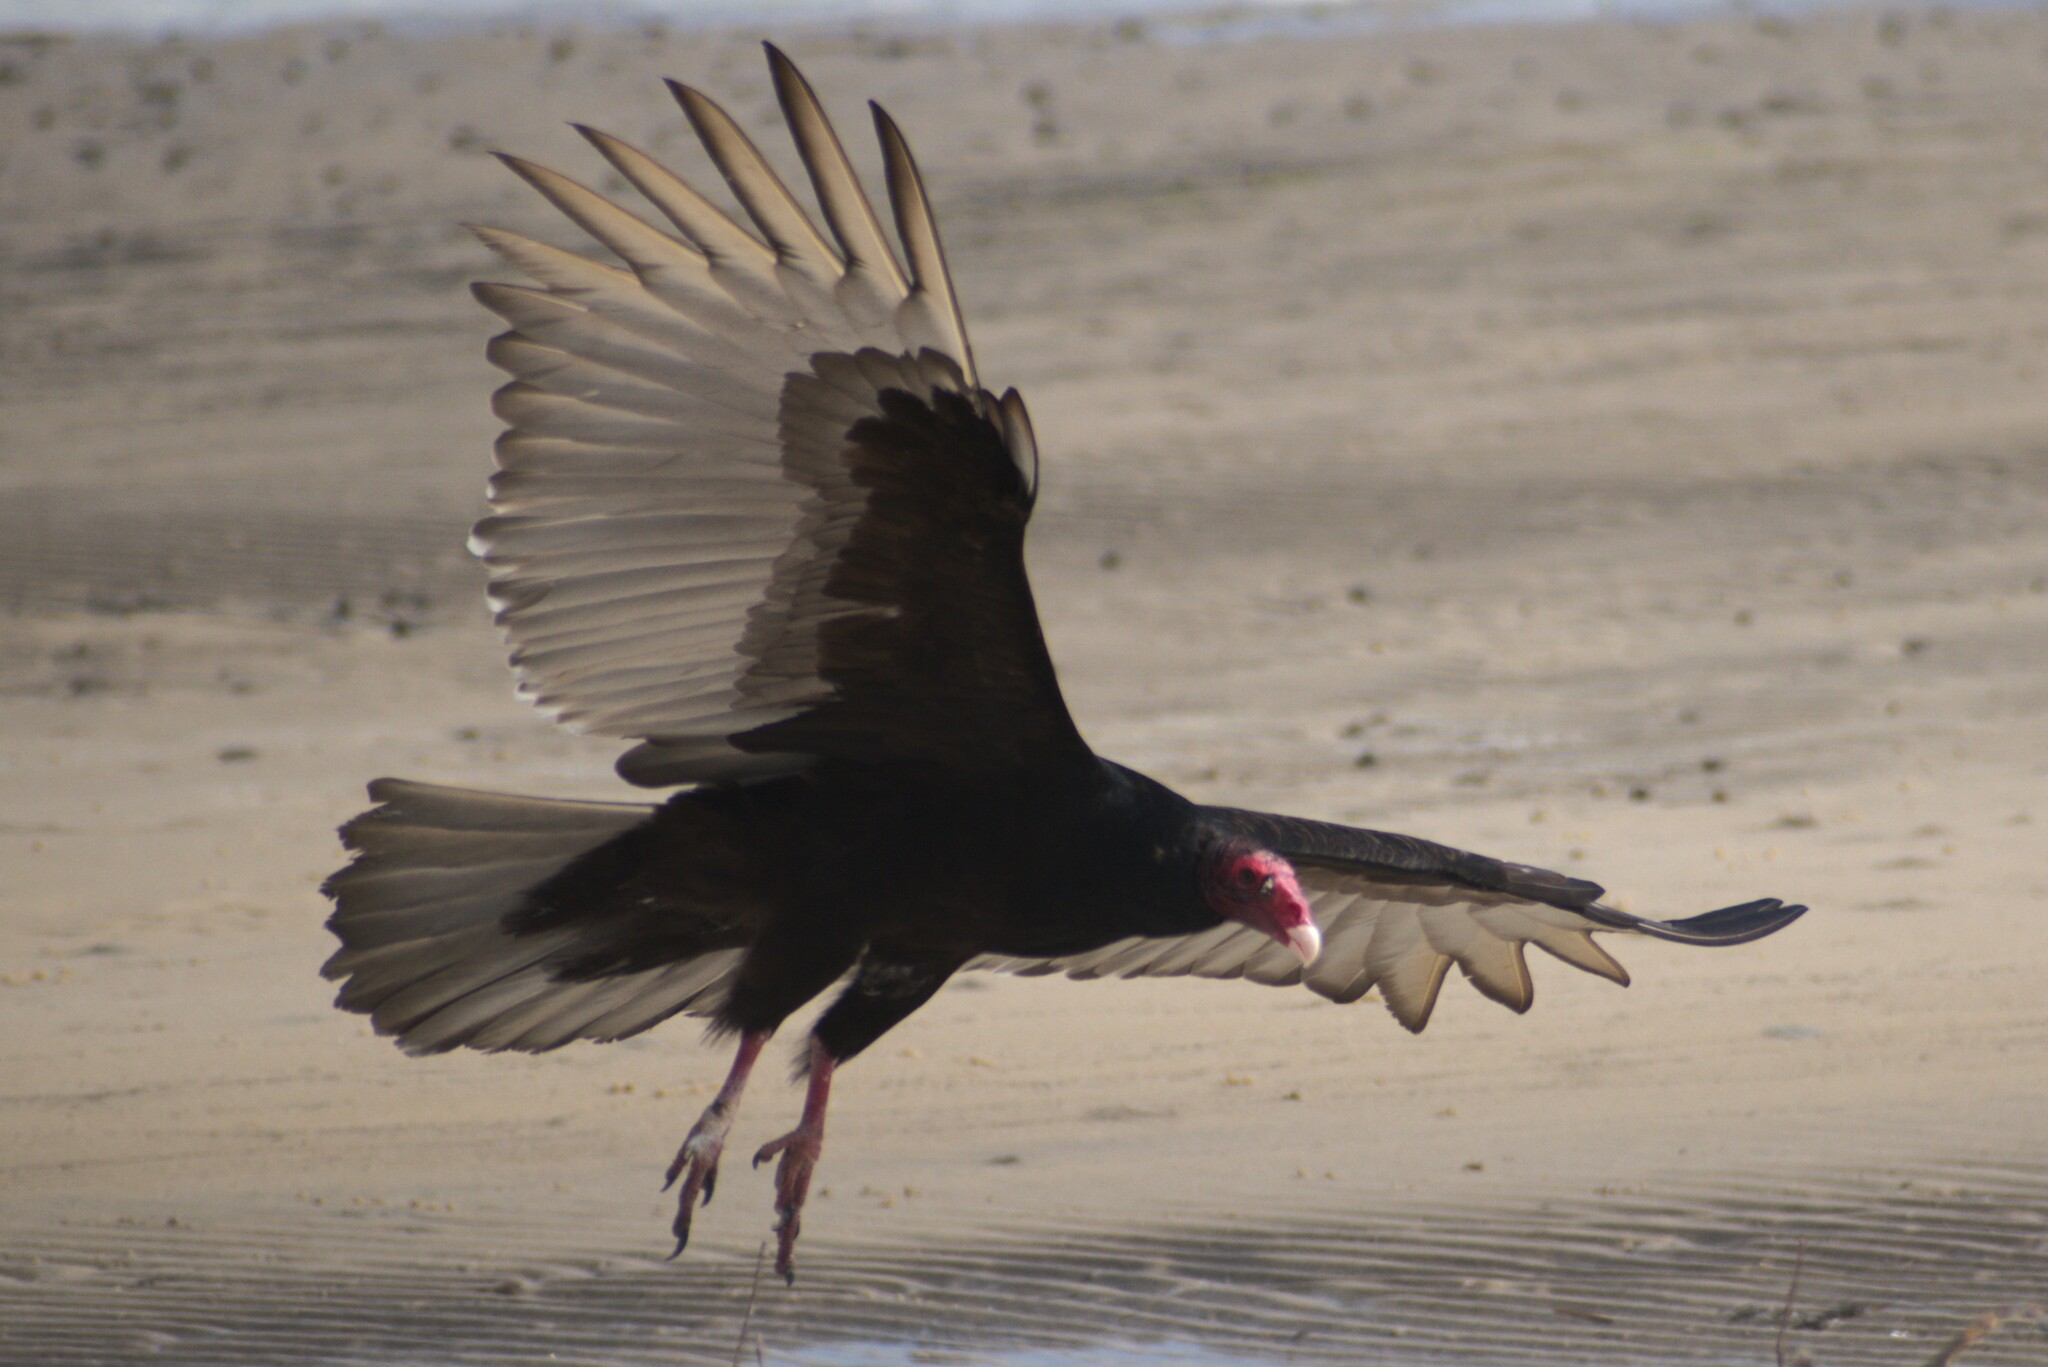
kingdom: Animalia
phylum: Chordata
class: Aves
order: Accipitriformes
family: Cathartidae
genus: Cathartes
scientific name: Cathartes aura
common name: Turkey vulture
